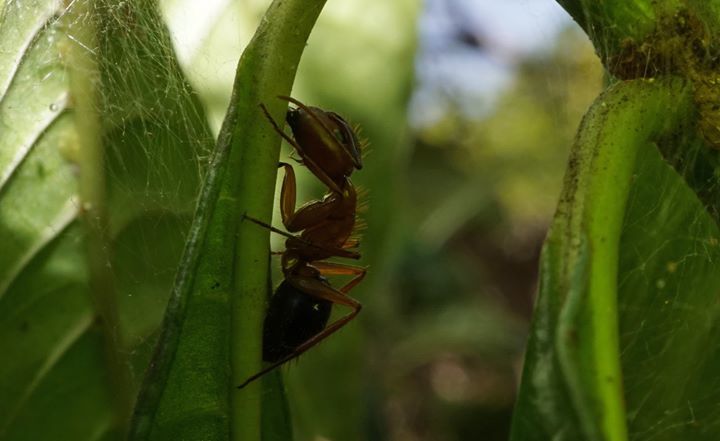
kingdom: Animalia
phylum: Arthropoda
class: Insecta
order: Hymenoptera
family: Formicidae
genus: Camponotus
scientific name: Camponotus floridanus
